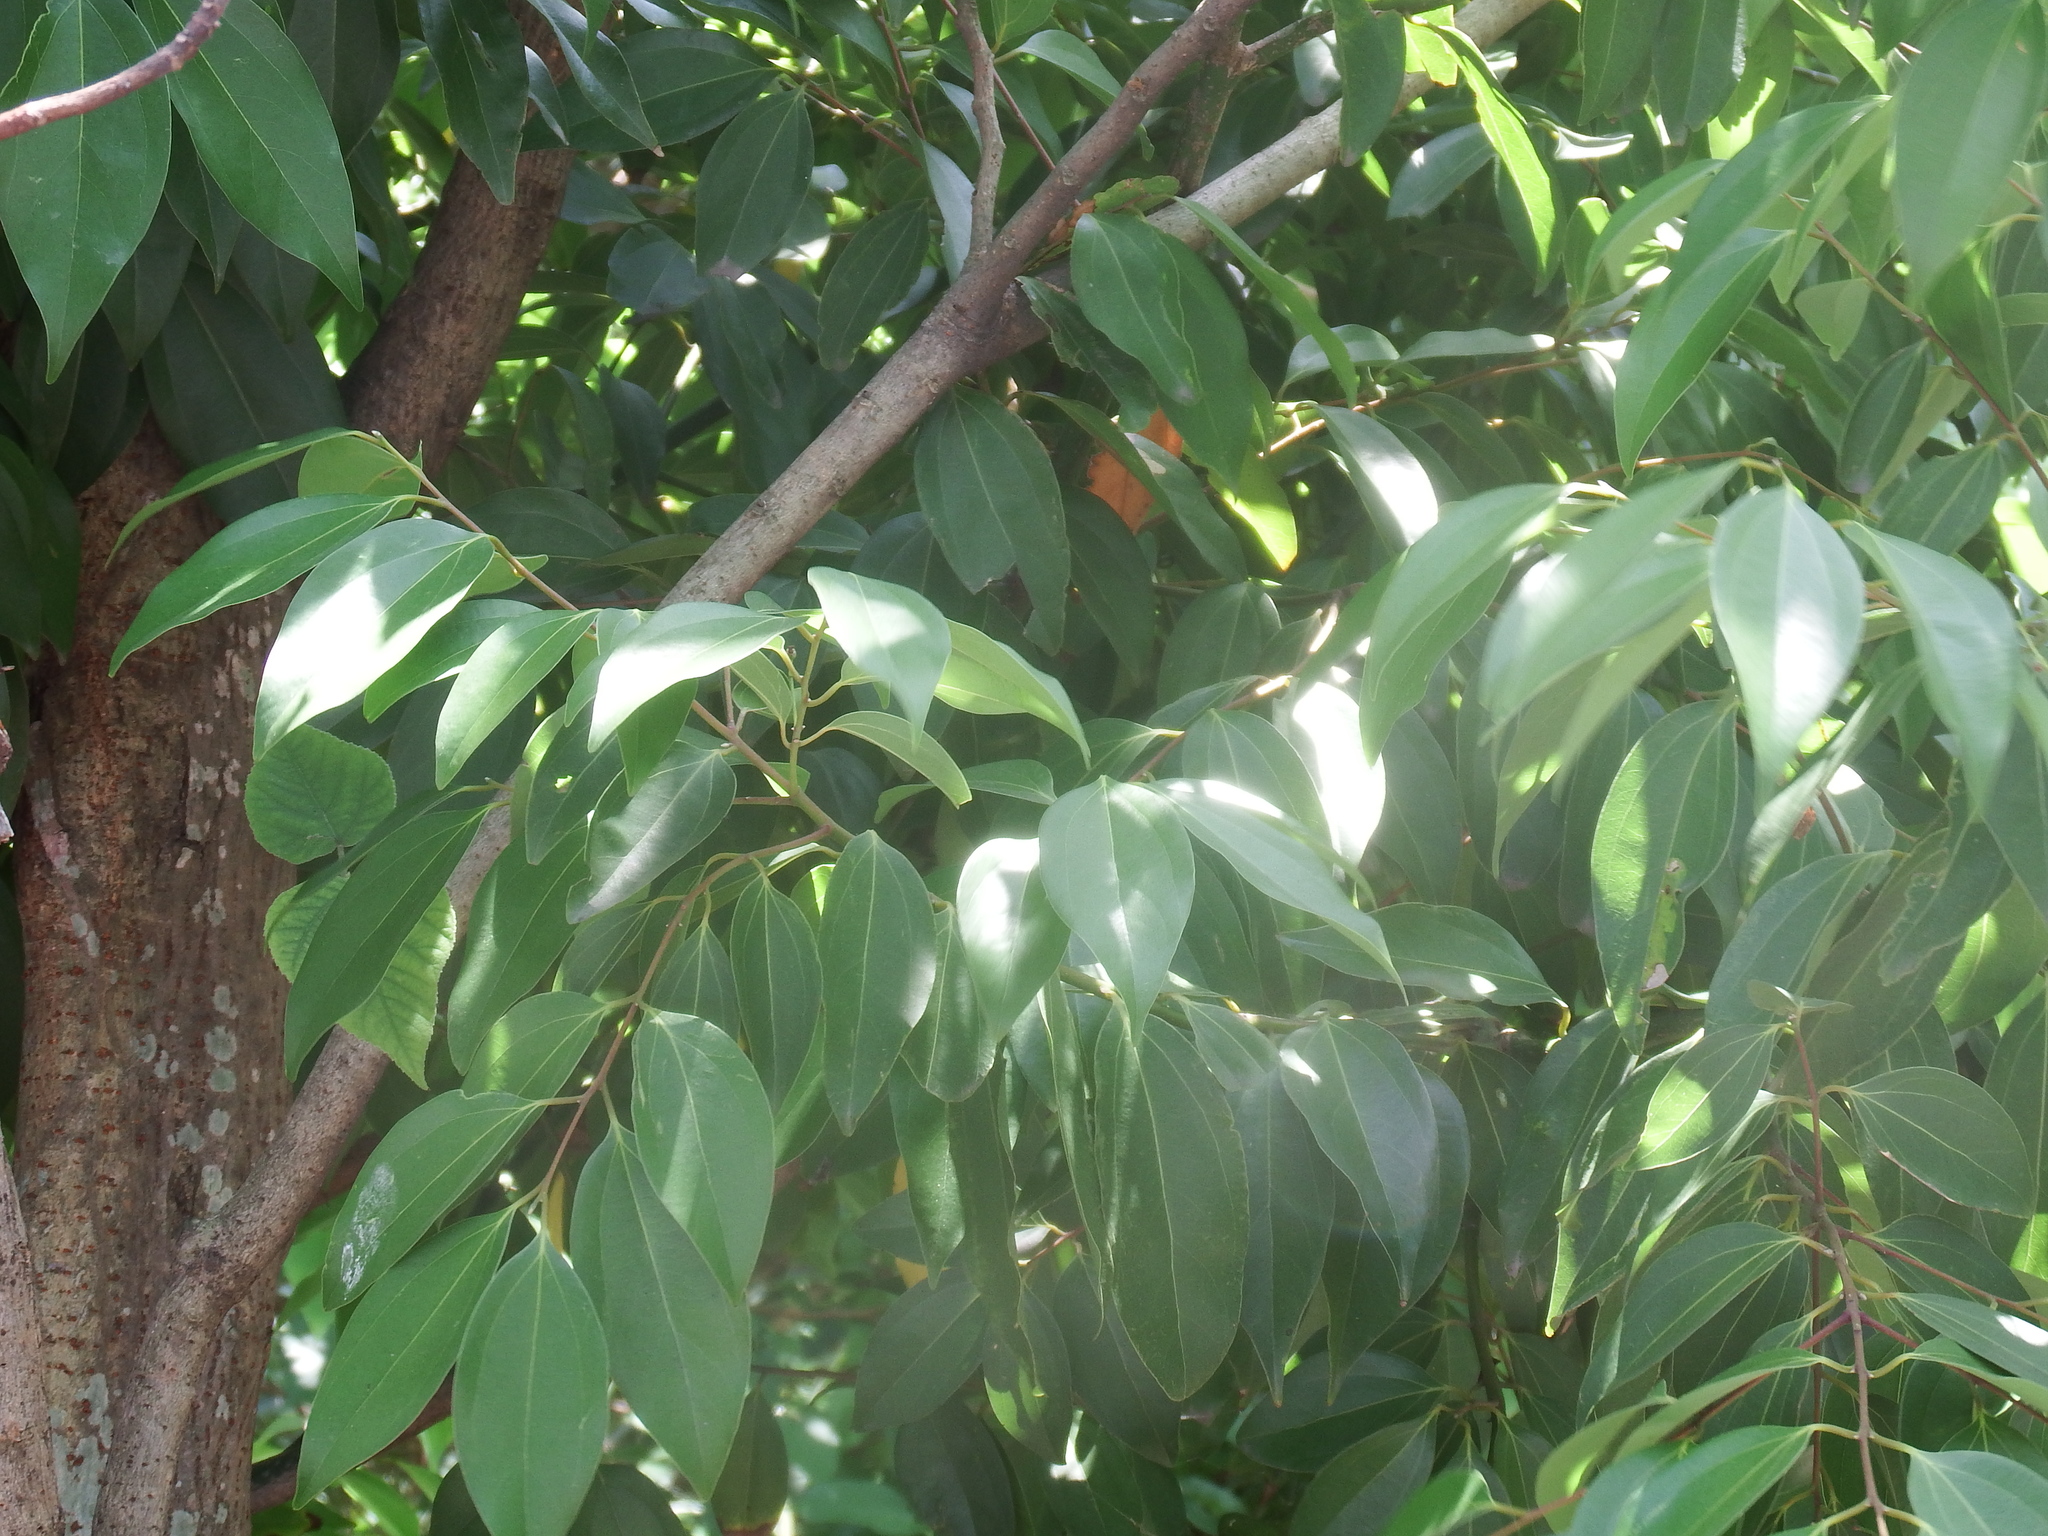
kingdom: Plantae
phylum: Tracheophyta
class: Magnoliopsida
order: Laurales
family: Lauraceae
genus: Cinnamomum
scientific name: Cinnamomum burmanni
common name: Padang cassia
